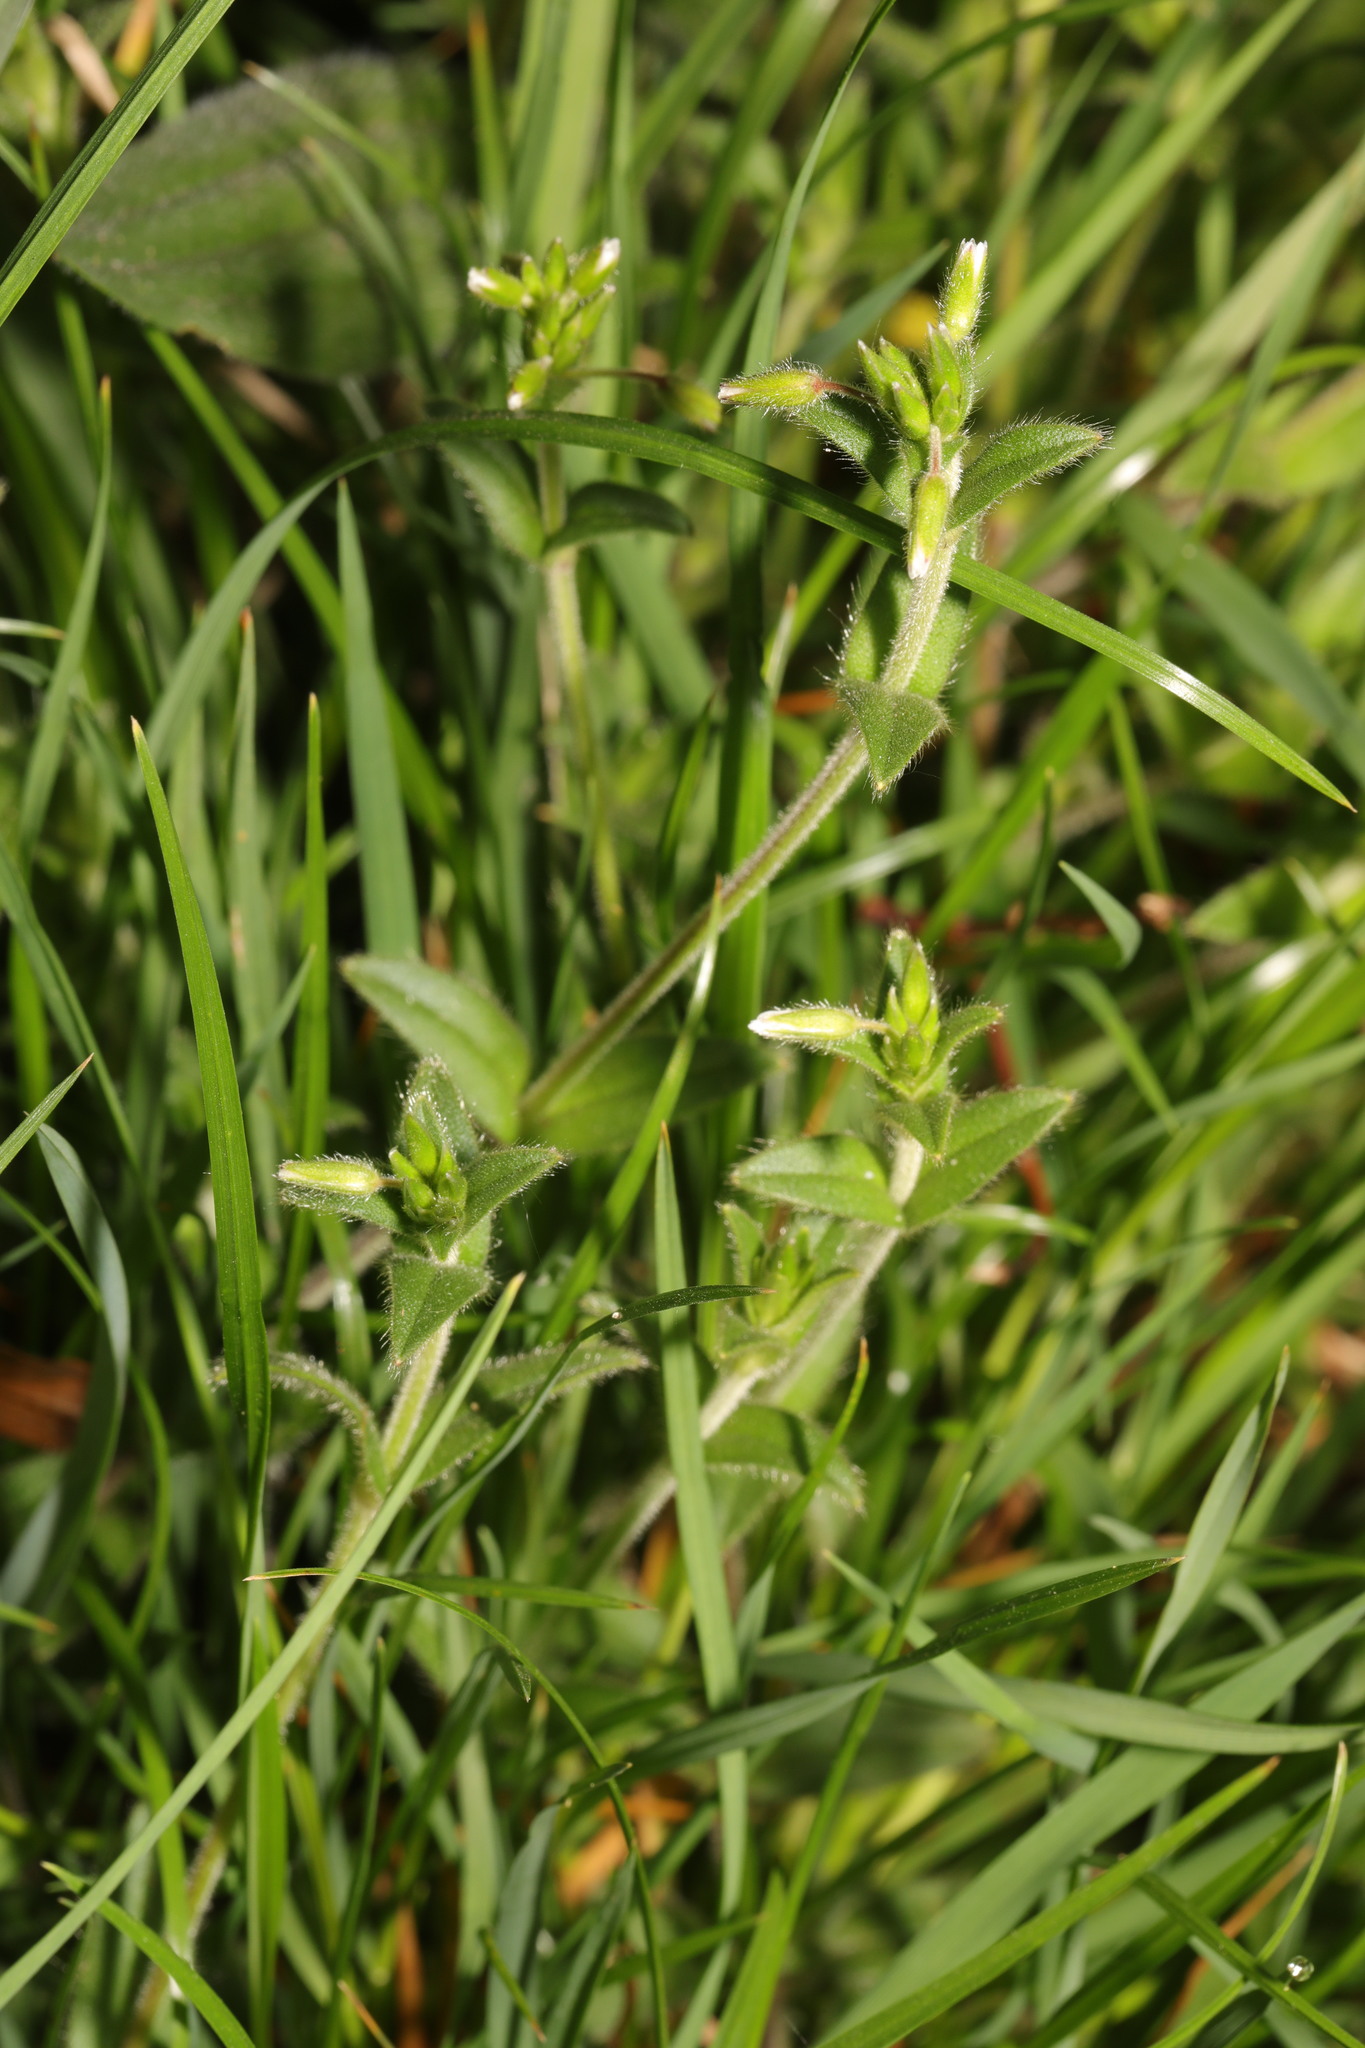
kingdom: Plantae
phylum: Tracheophyta
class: Magnoliopsida
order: Caryophyllales
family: Caryophyllaceae
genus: Cerastium
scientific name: Cerastium fontanum
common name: Common mouse-ear
